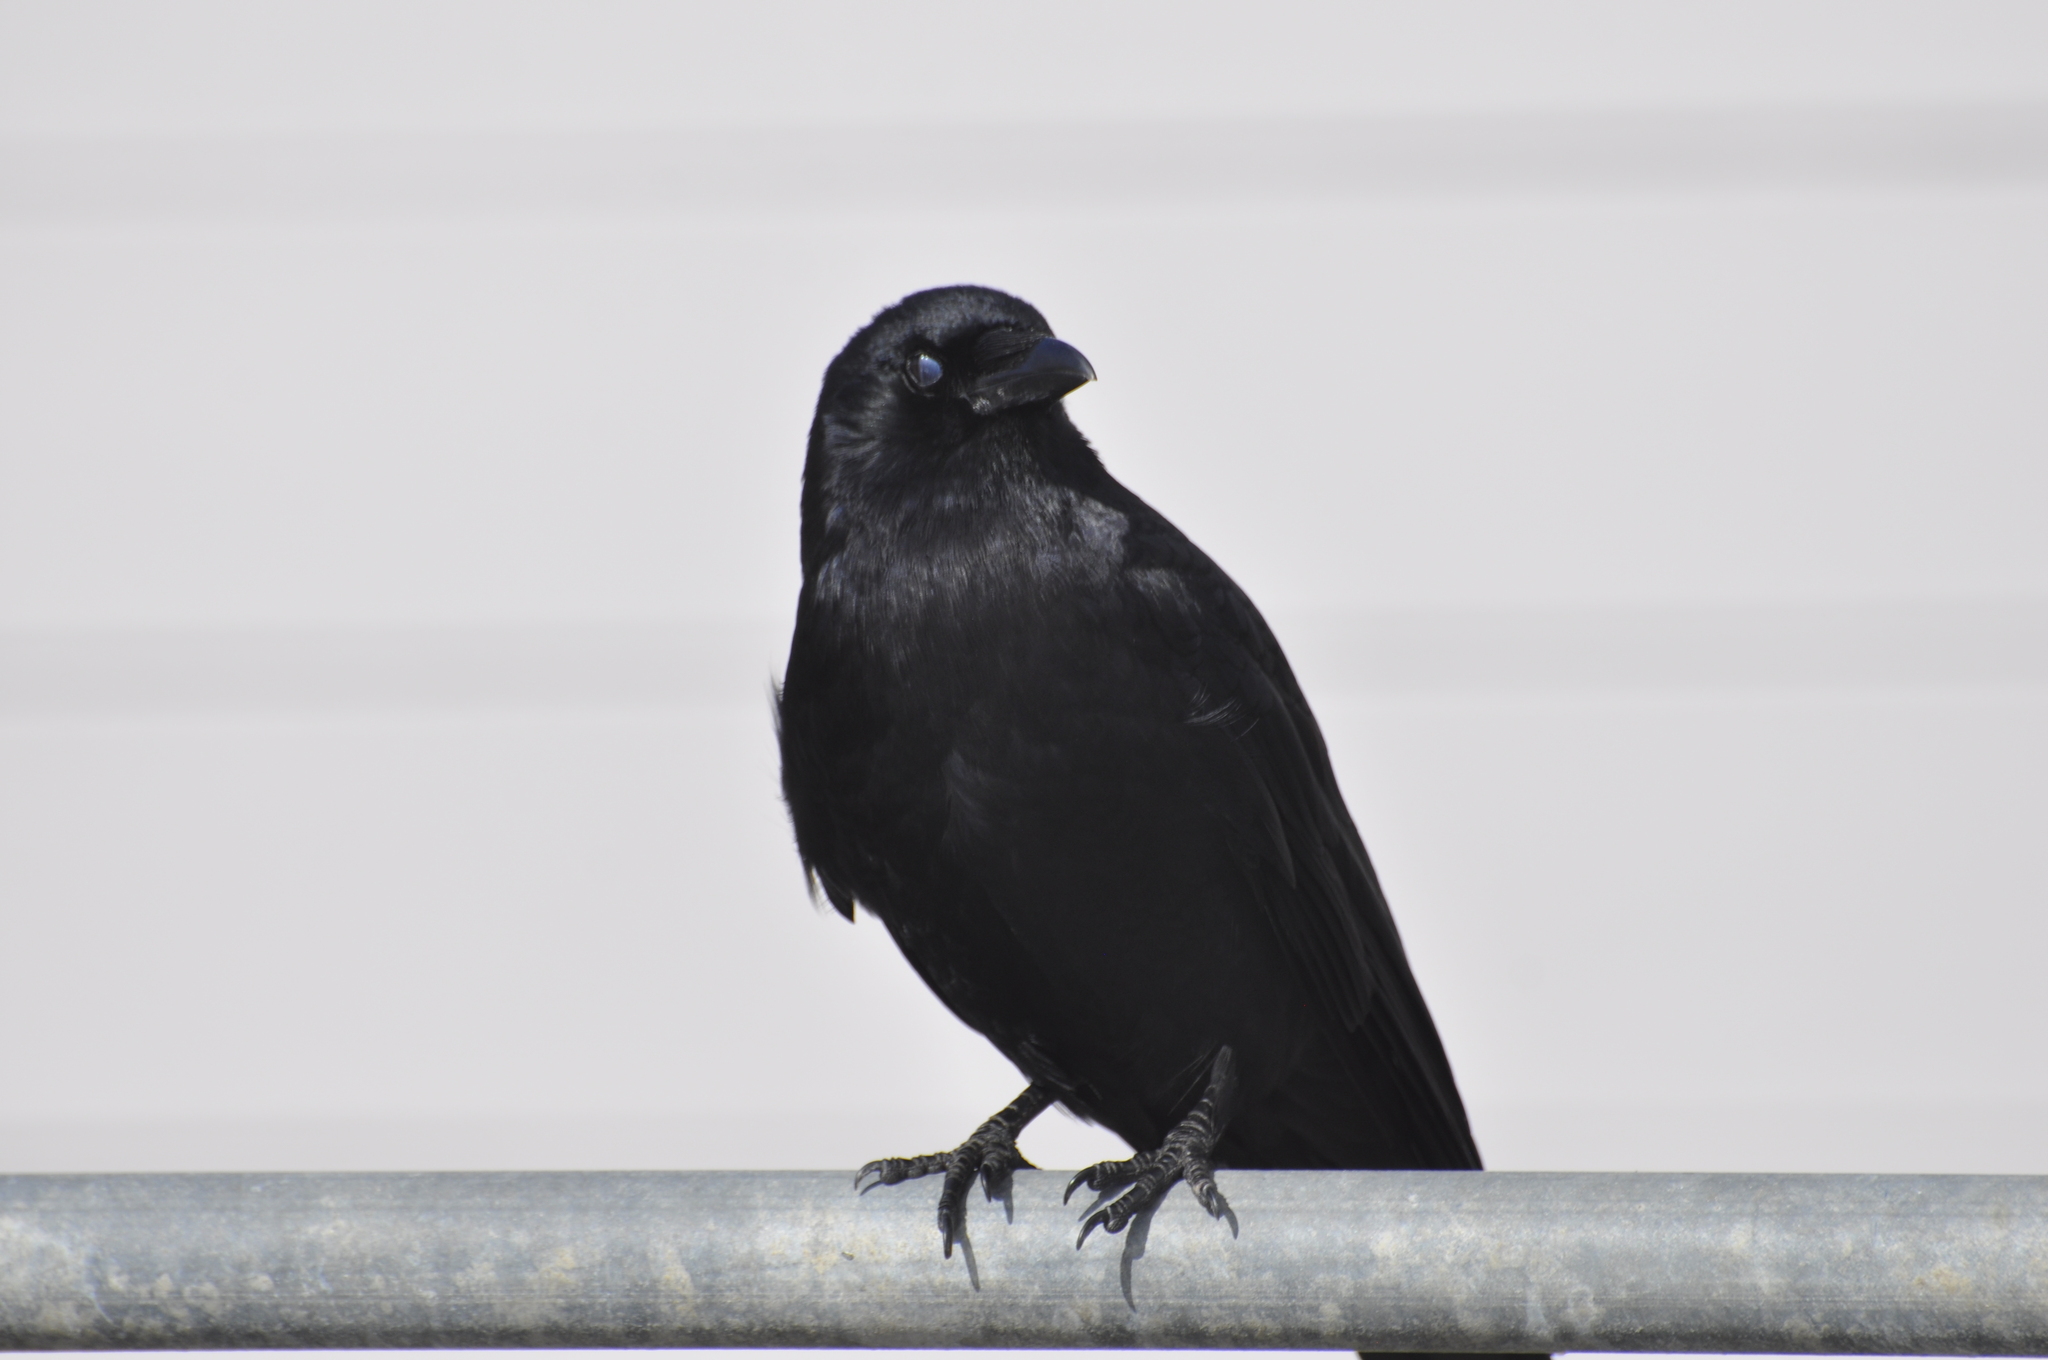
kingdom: Animalia
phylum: Chordata
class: Aves
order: Passeriformes
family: Corvidae
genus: Corvus
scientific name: Corvus brachyrhynchos
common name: American crow
